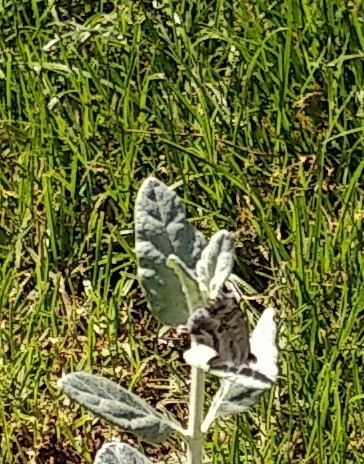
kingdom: Animalia
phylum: Arthropoda
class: Insecta
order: Lepidoptera
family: Lycaenidae
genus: Cacyreus
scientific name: Cacyreus marshalli
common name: Geranium bronze
